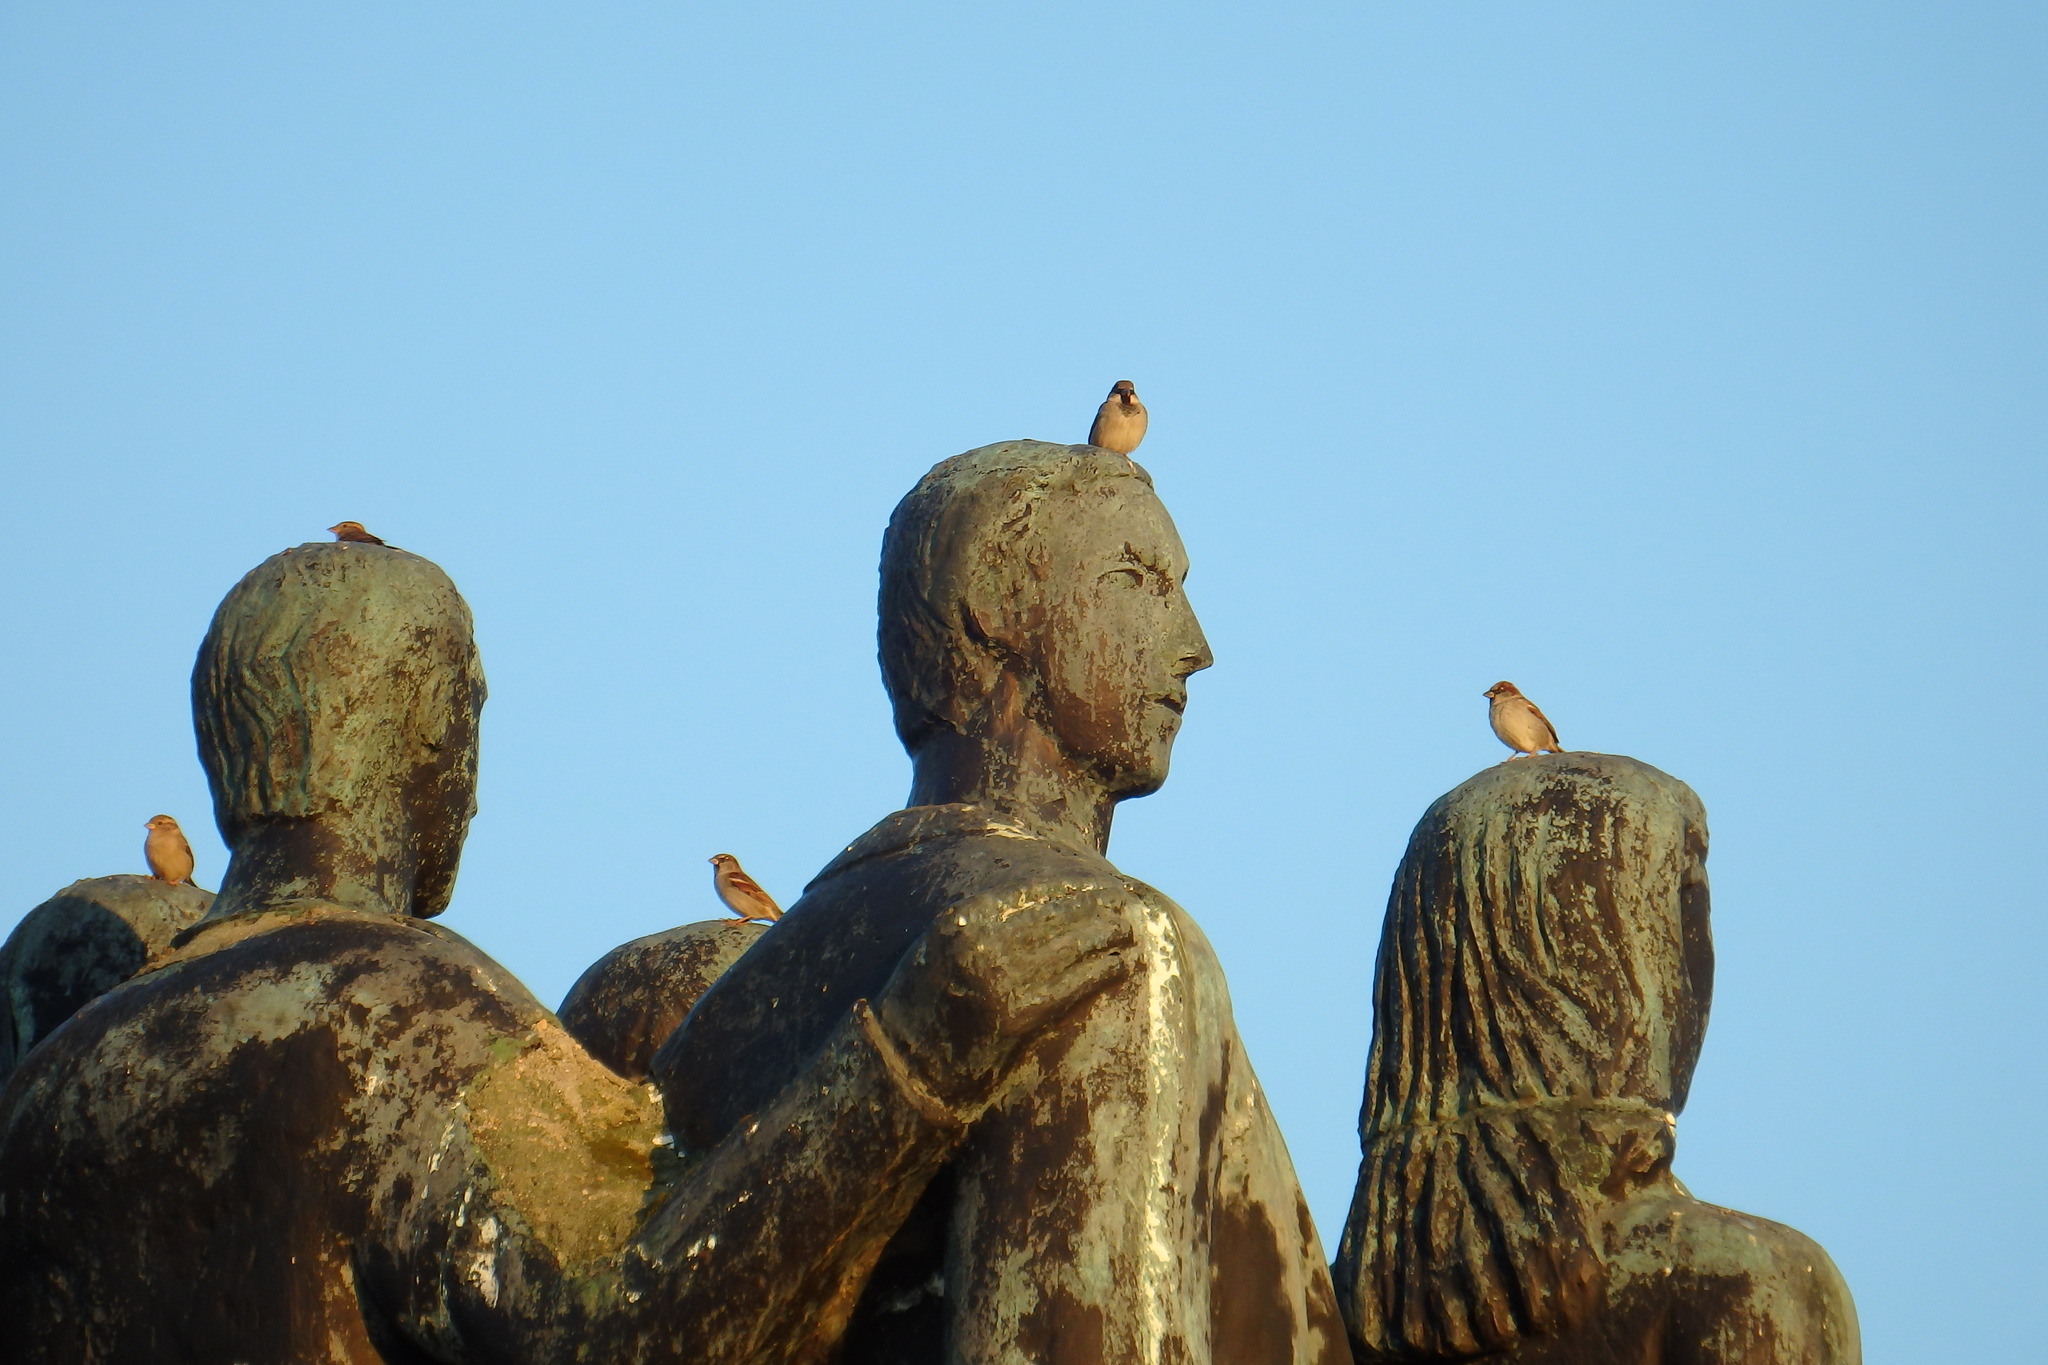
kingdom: Animalia
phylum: Chordata
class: Aves
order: Passeriformes
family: Passeridae
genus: Passer
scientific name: Passer domesticus
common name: House sparrow
